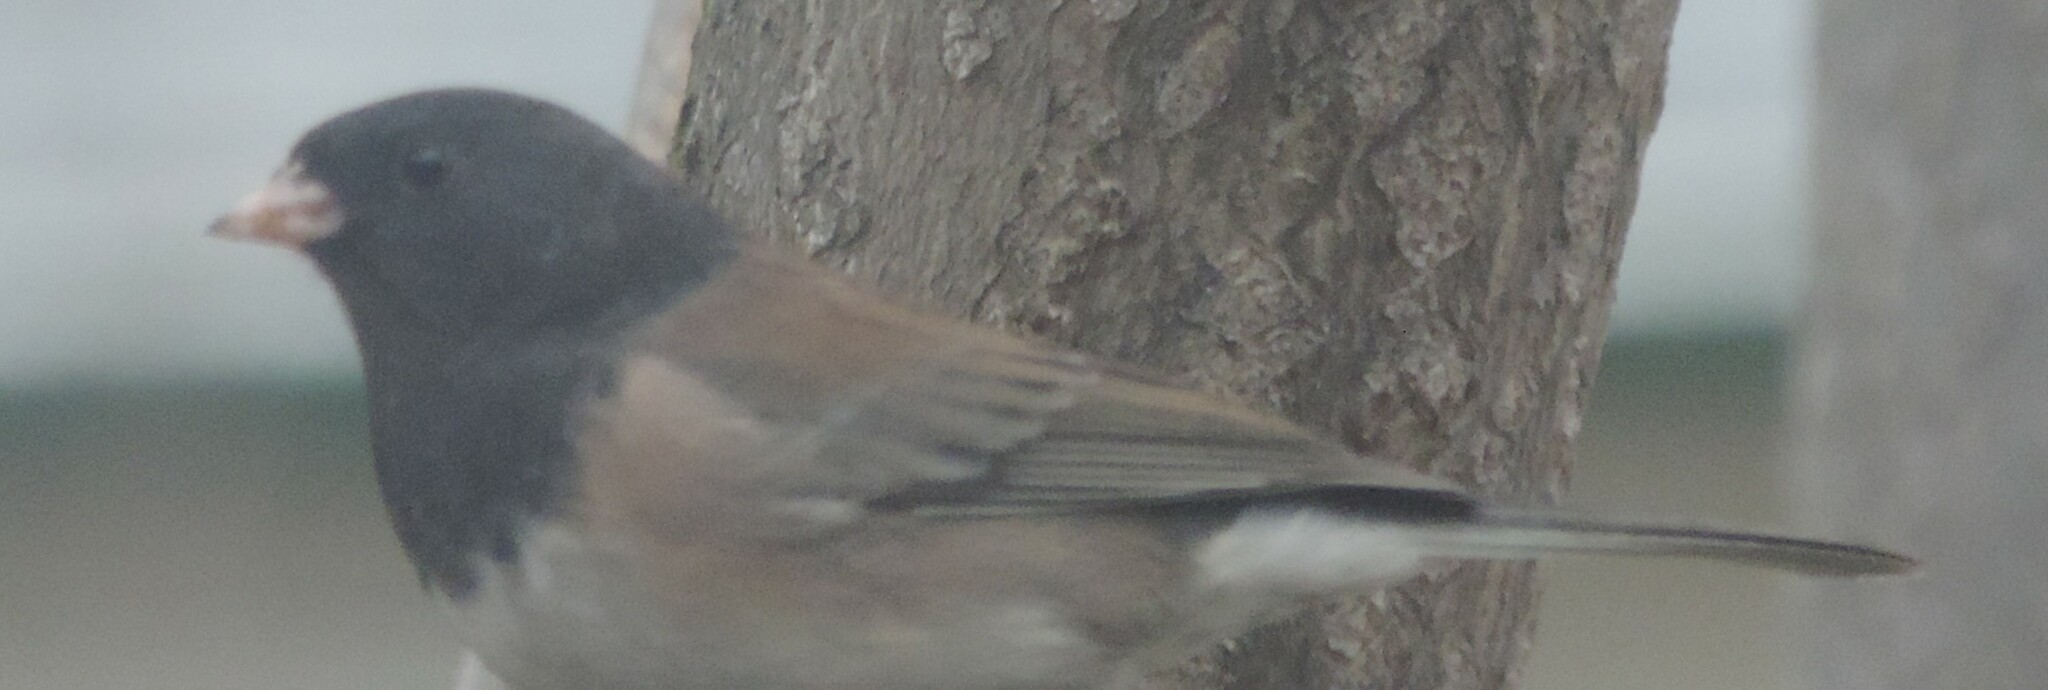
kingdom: Animalia
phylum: Chordata
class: Aves
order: Passeriformes
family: Passerellidae
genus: Junco
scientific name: Junco hyemalis
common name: Dark-eyed junco
